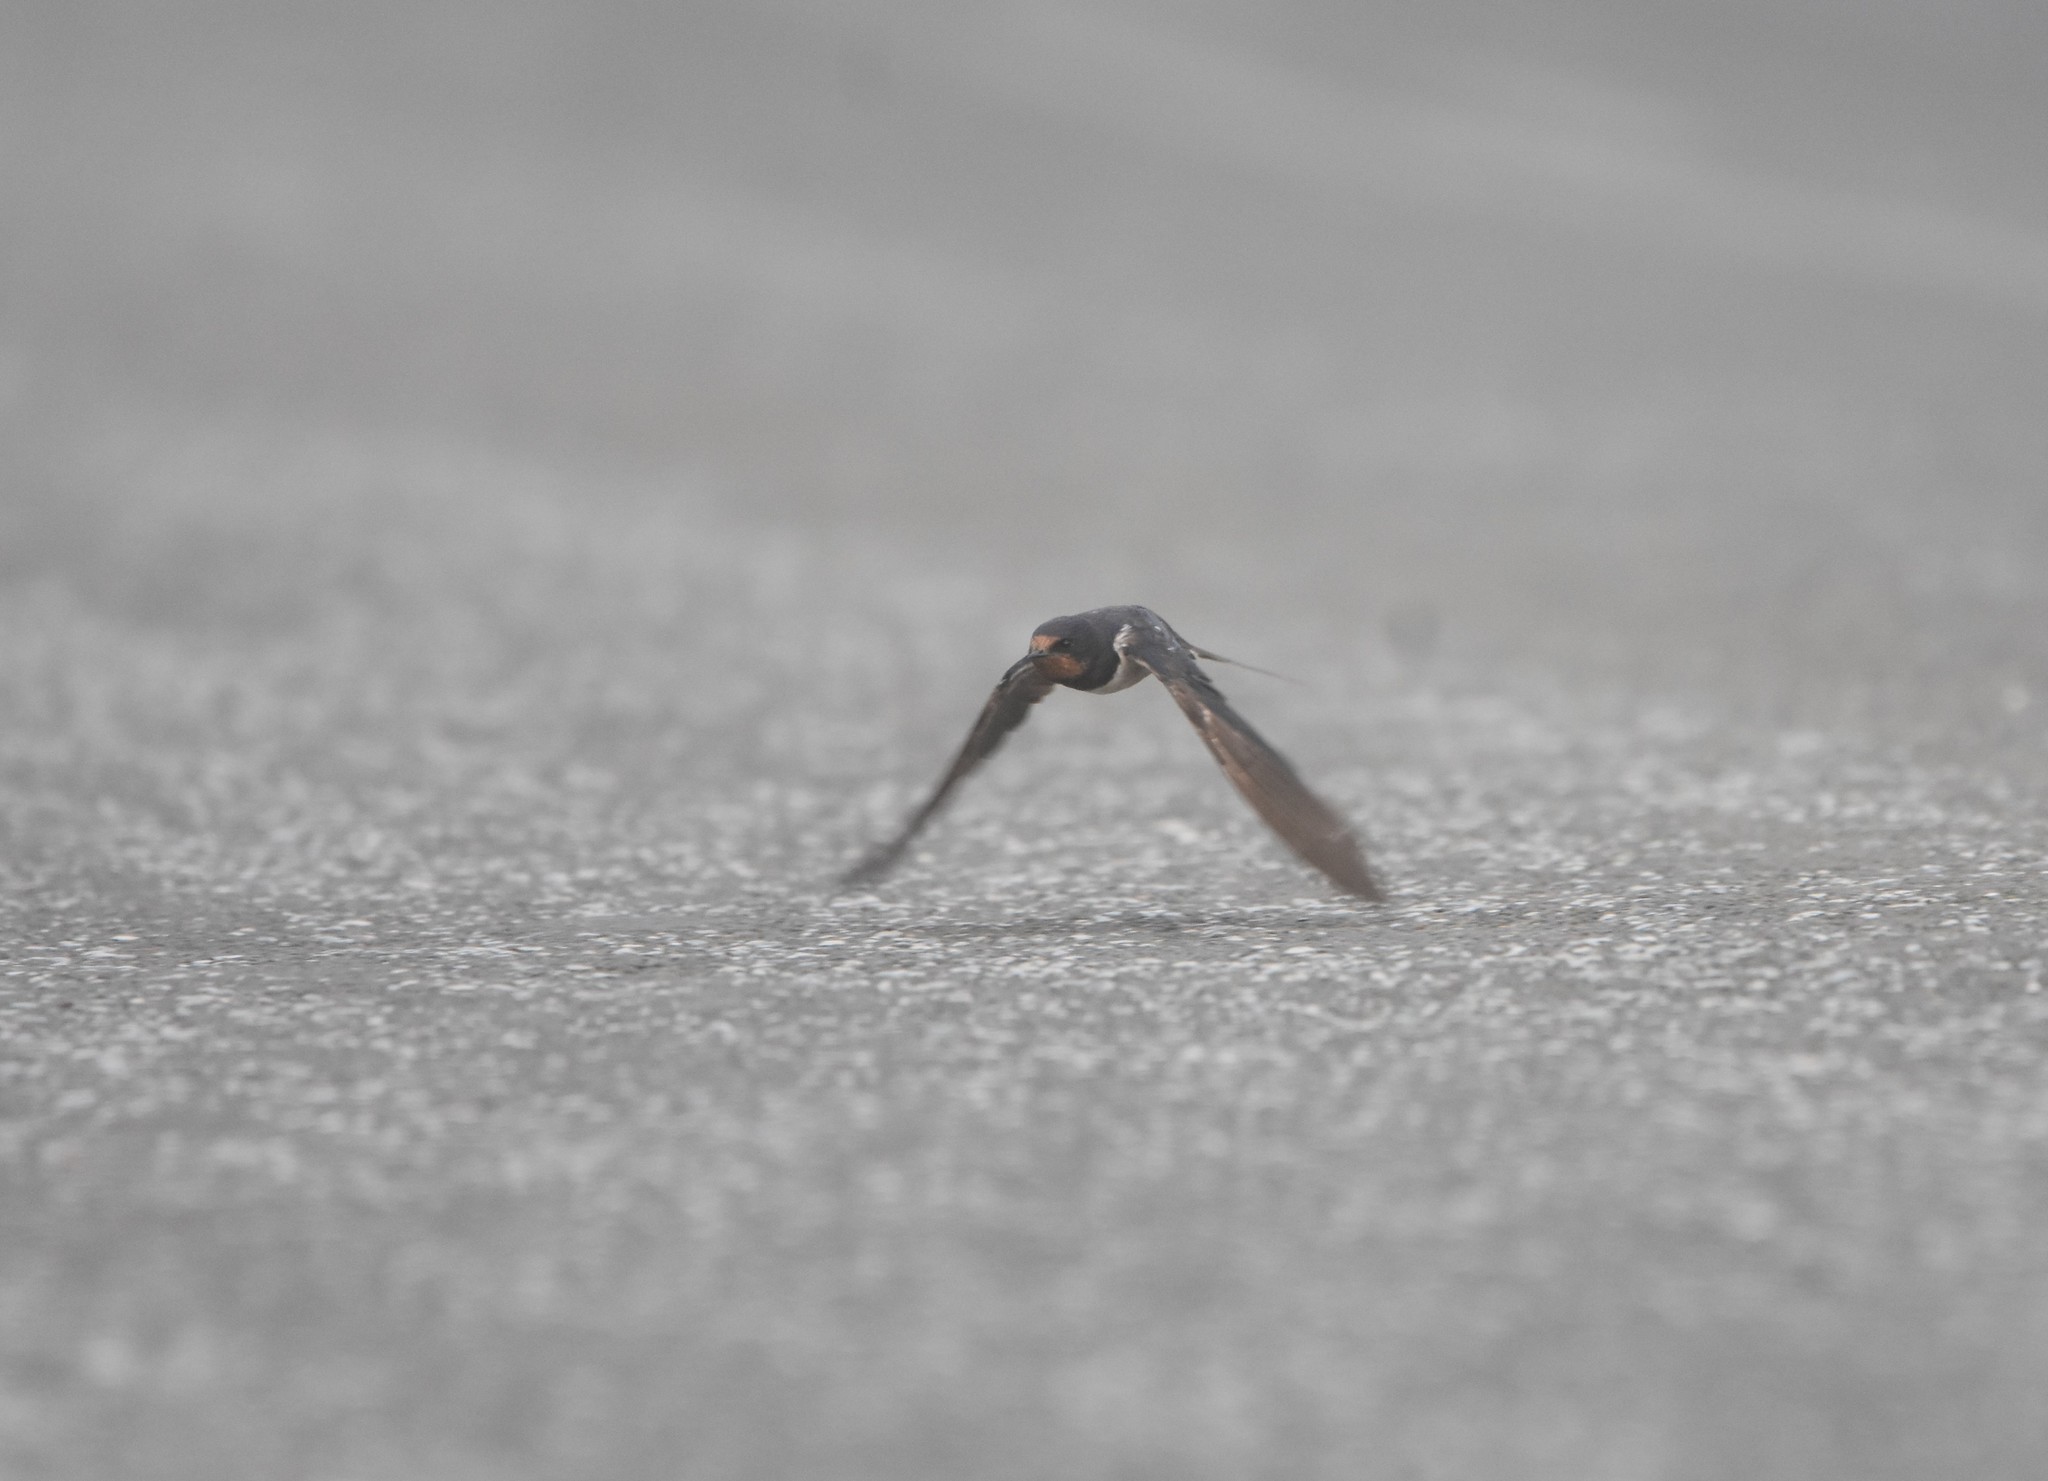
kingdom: Animalia
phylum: Chordata
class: Aves
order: Passeriformes
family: Hirundinidae
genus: Hirundo
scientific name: Hirundo rustica
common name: Barn swallow
